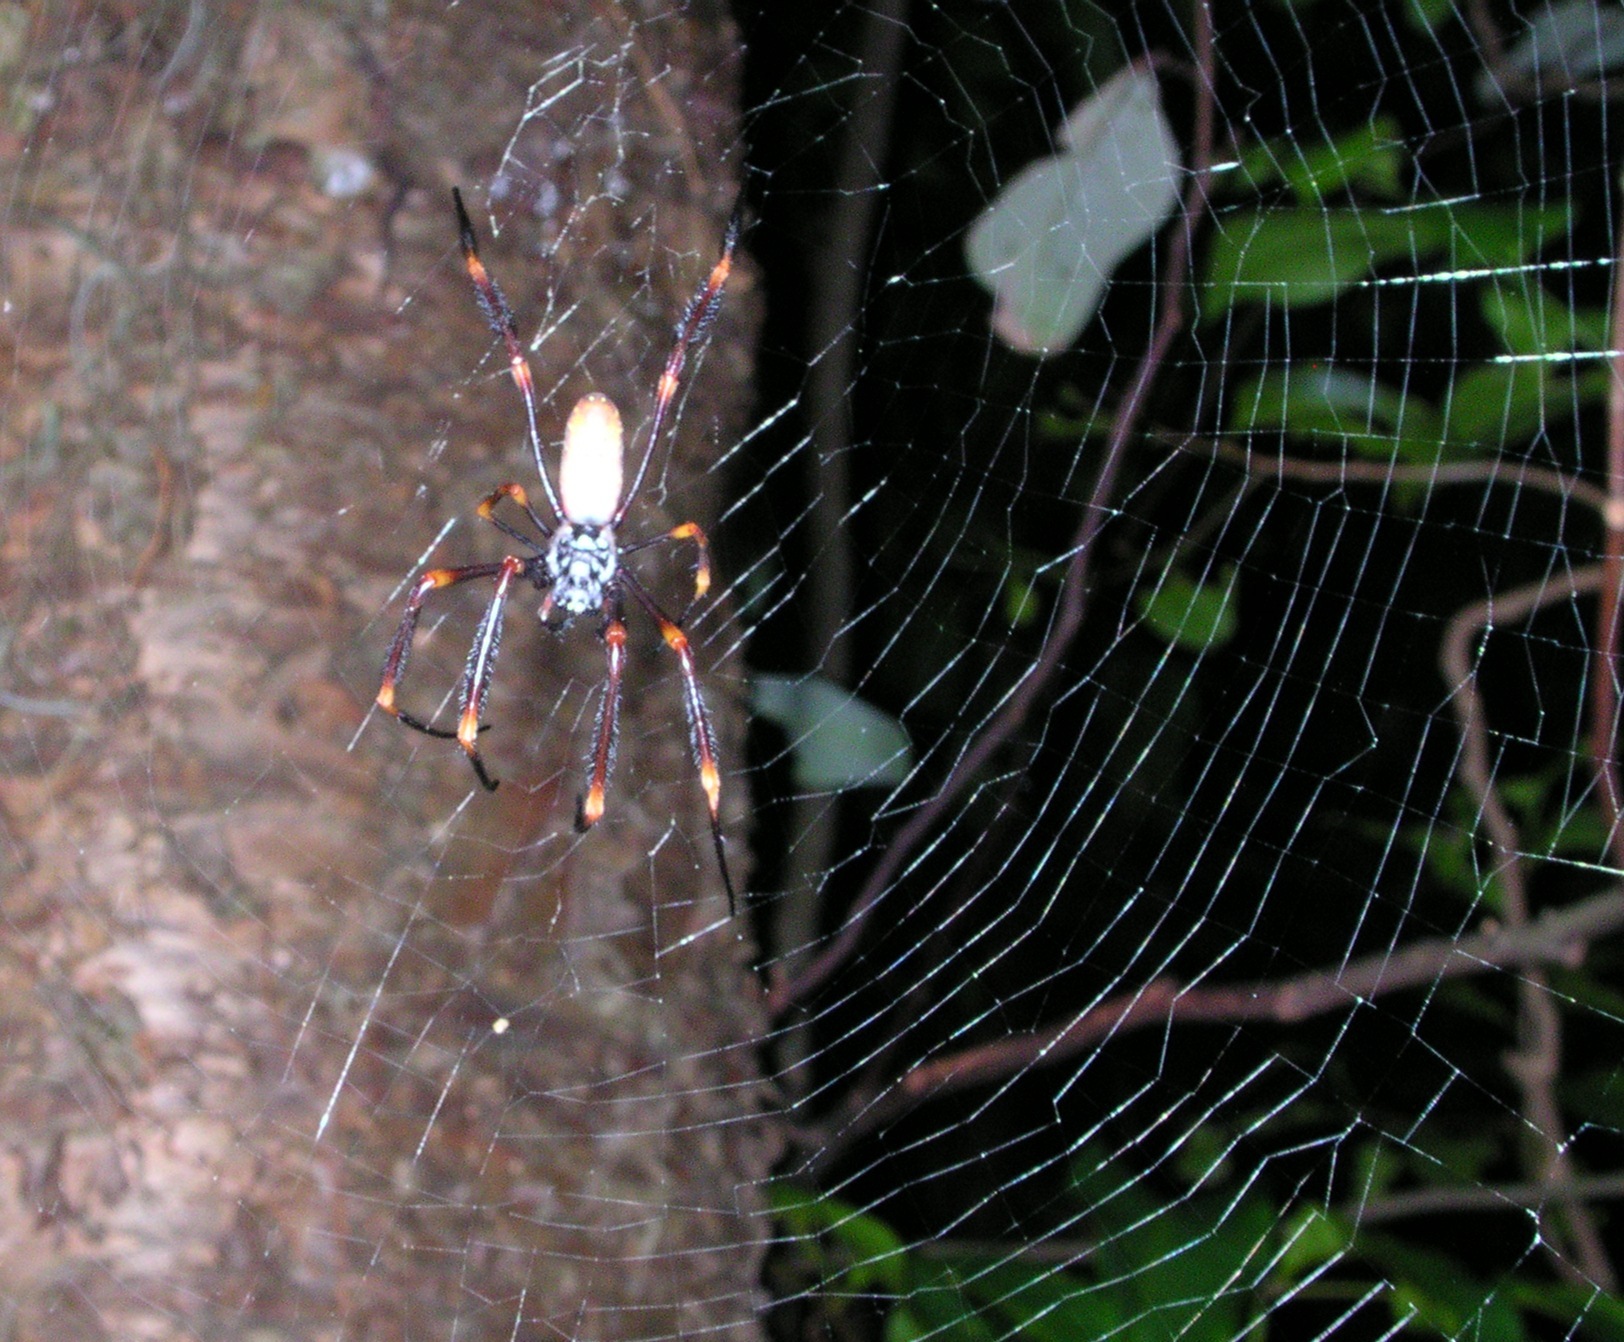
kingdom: Animalia
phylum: Arthropoda
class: Arachnida
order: Araneae
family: Araneidae
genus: Trichonephila
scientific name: Trichonephila plumipes
